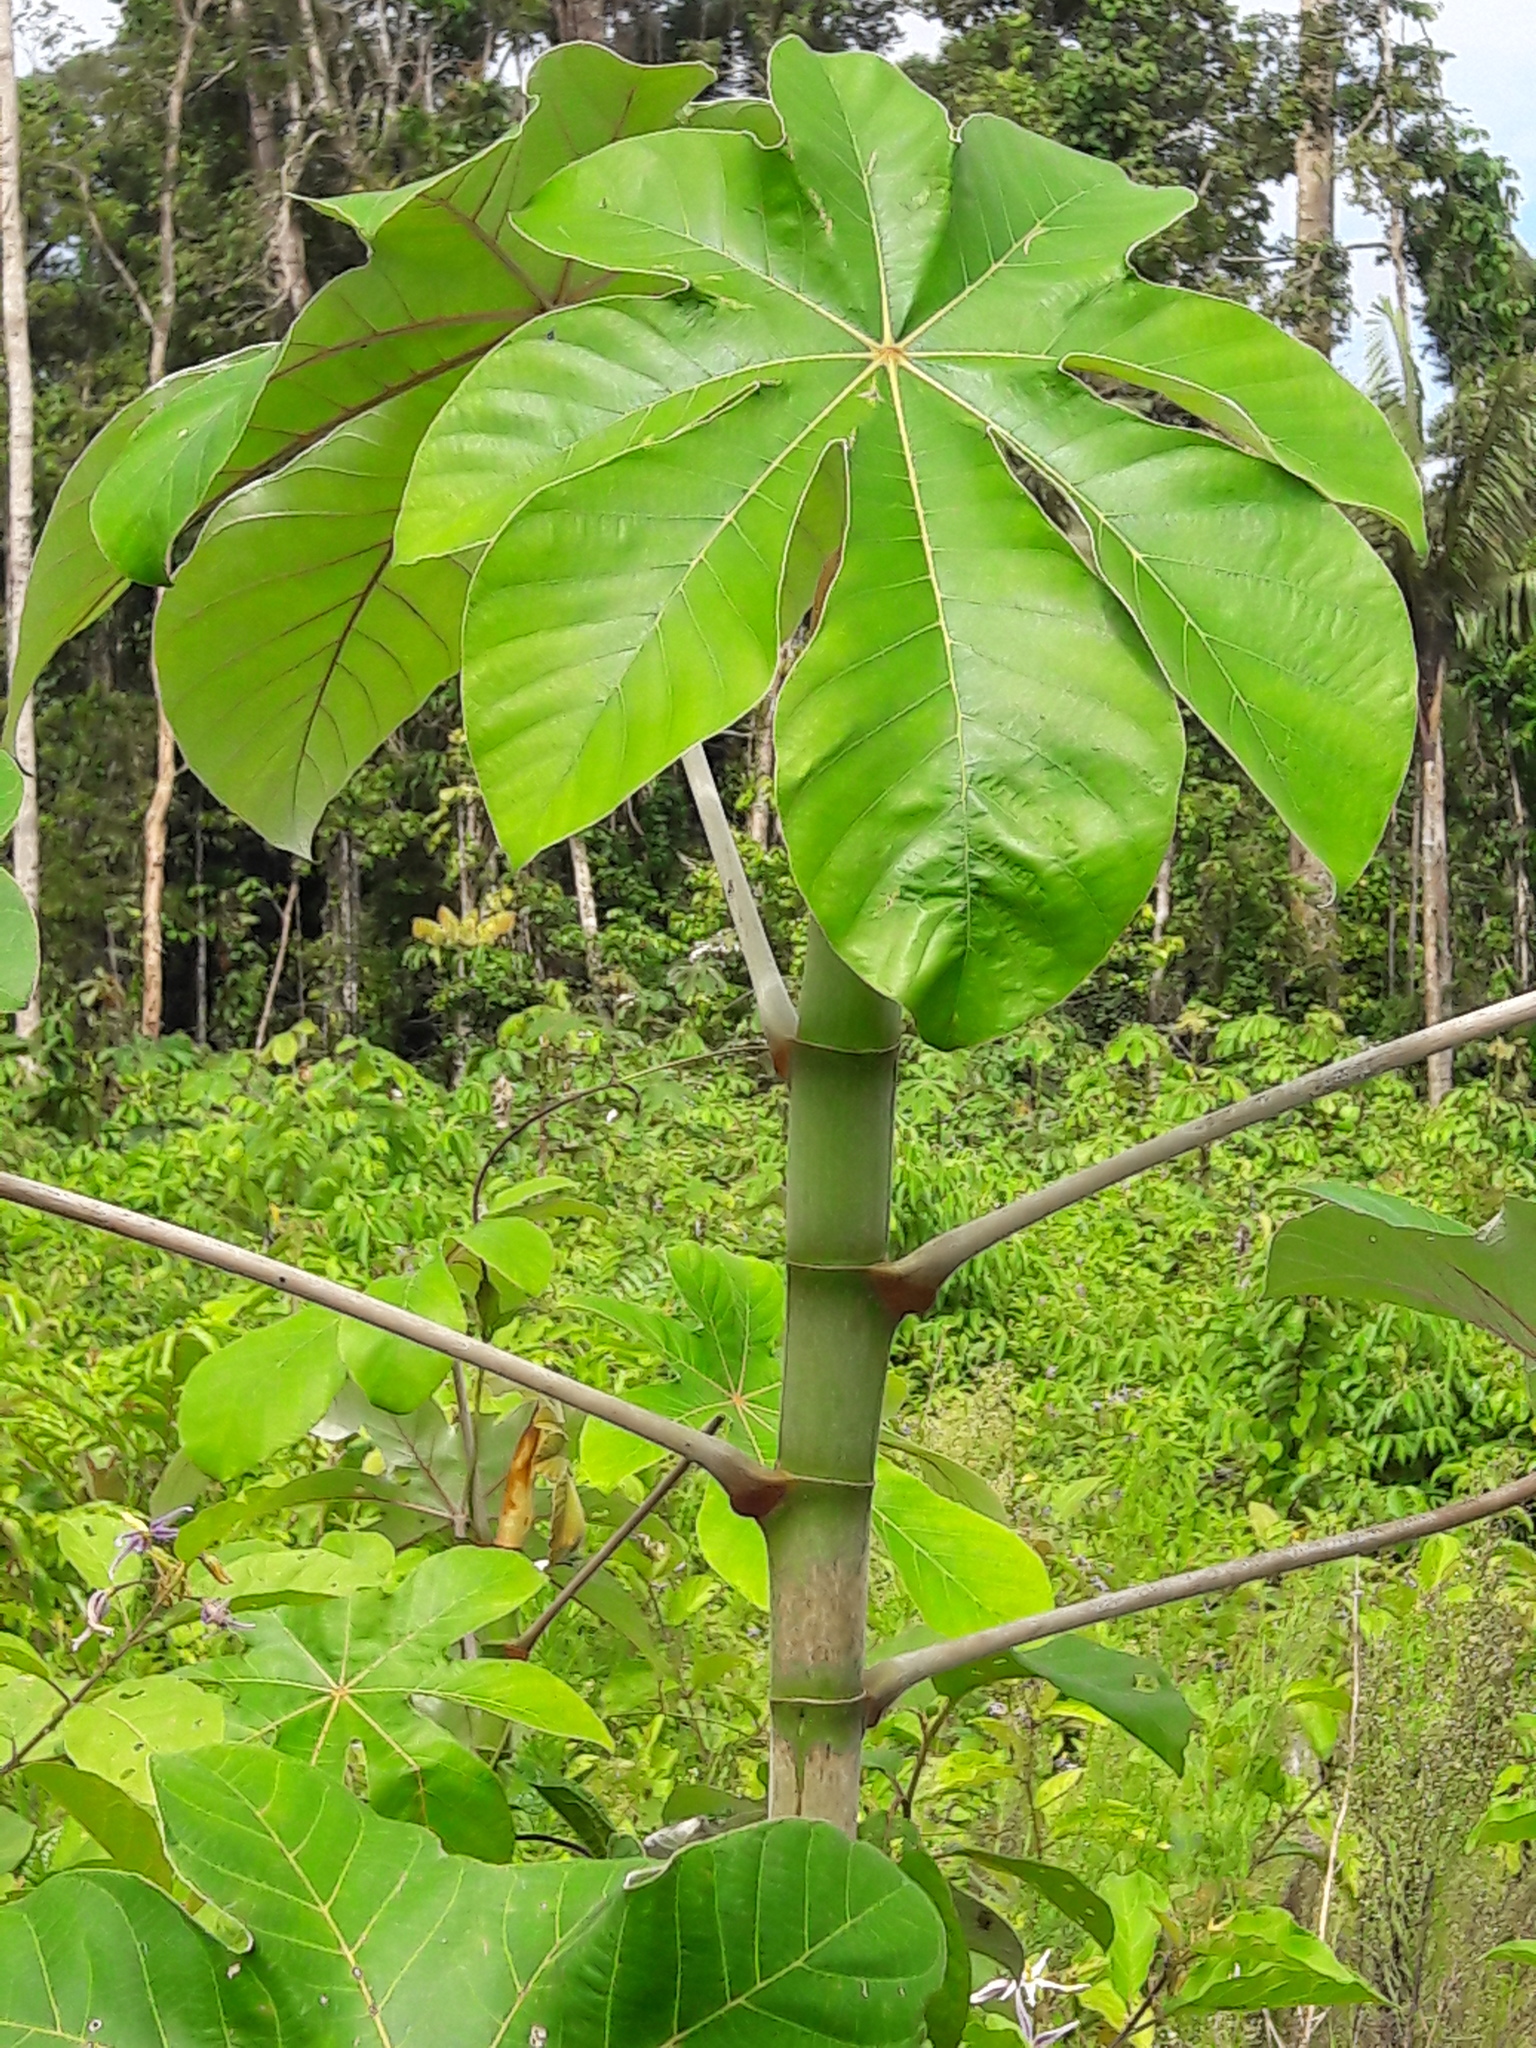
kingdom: Plantae
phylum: Tracheophyta
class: Magnoliopsida
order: Rosales
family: Urticaceae
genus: Cecropia
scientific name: Cecropia obtusa
